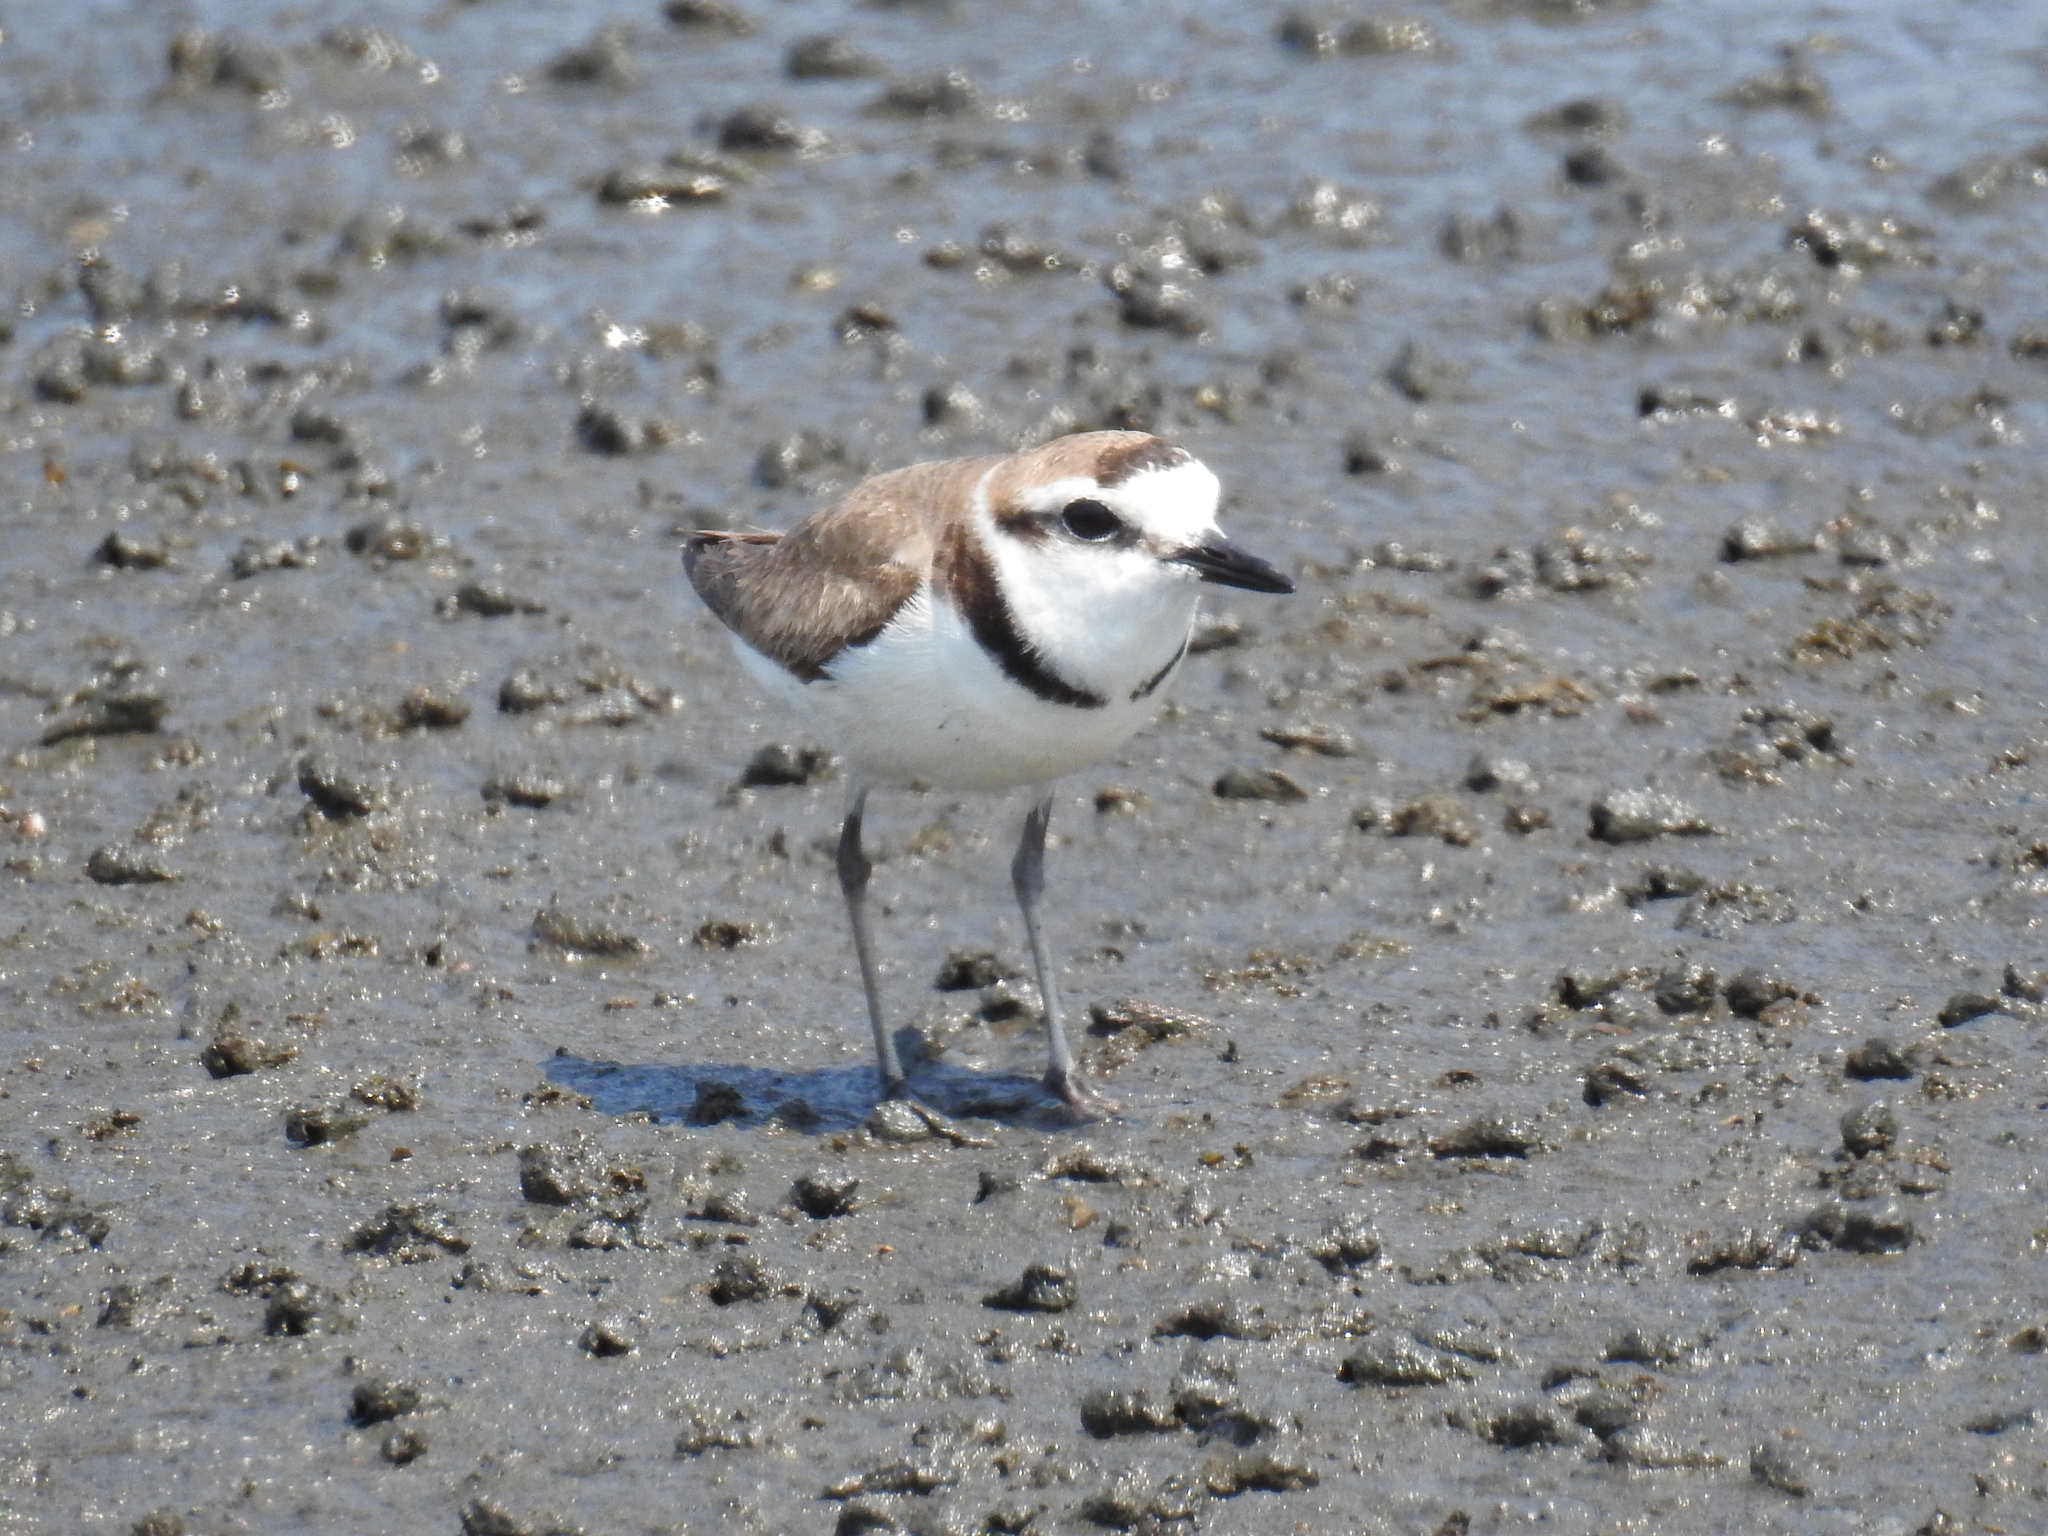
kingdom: Animalia
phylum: Chordata
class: Aves
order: Charadriiformes
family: Charadriidae
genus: Charadrius
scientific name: Charadrius alexandrinus
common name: Kentish plover
